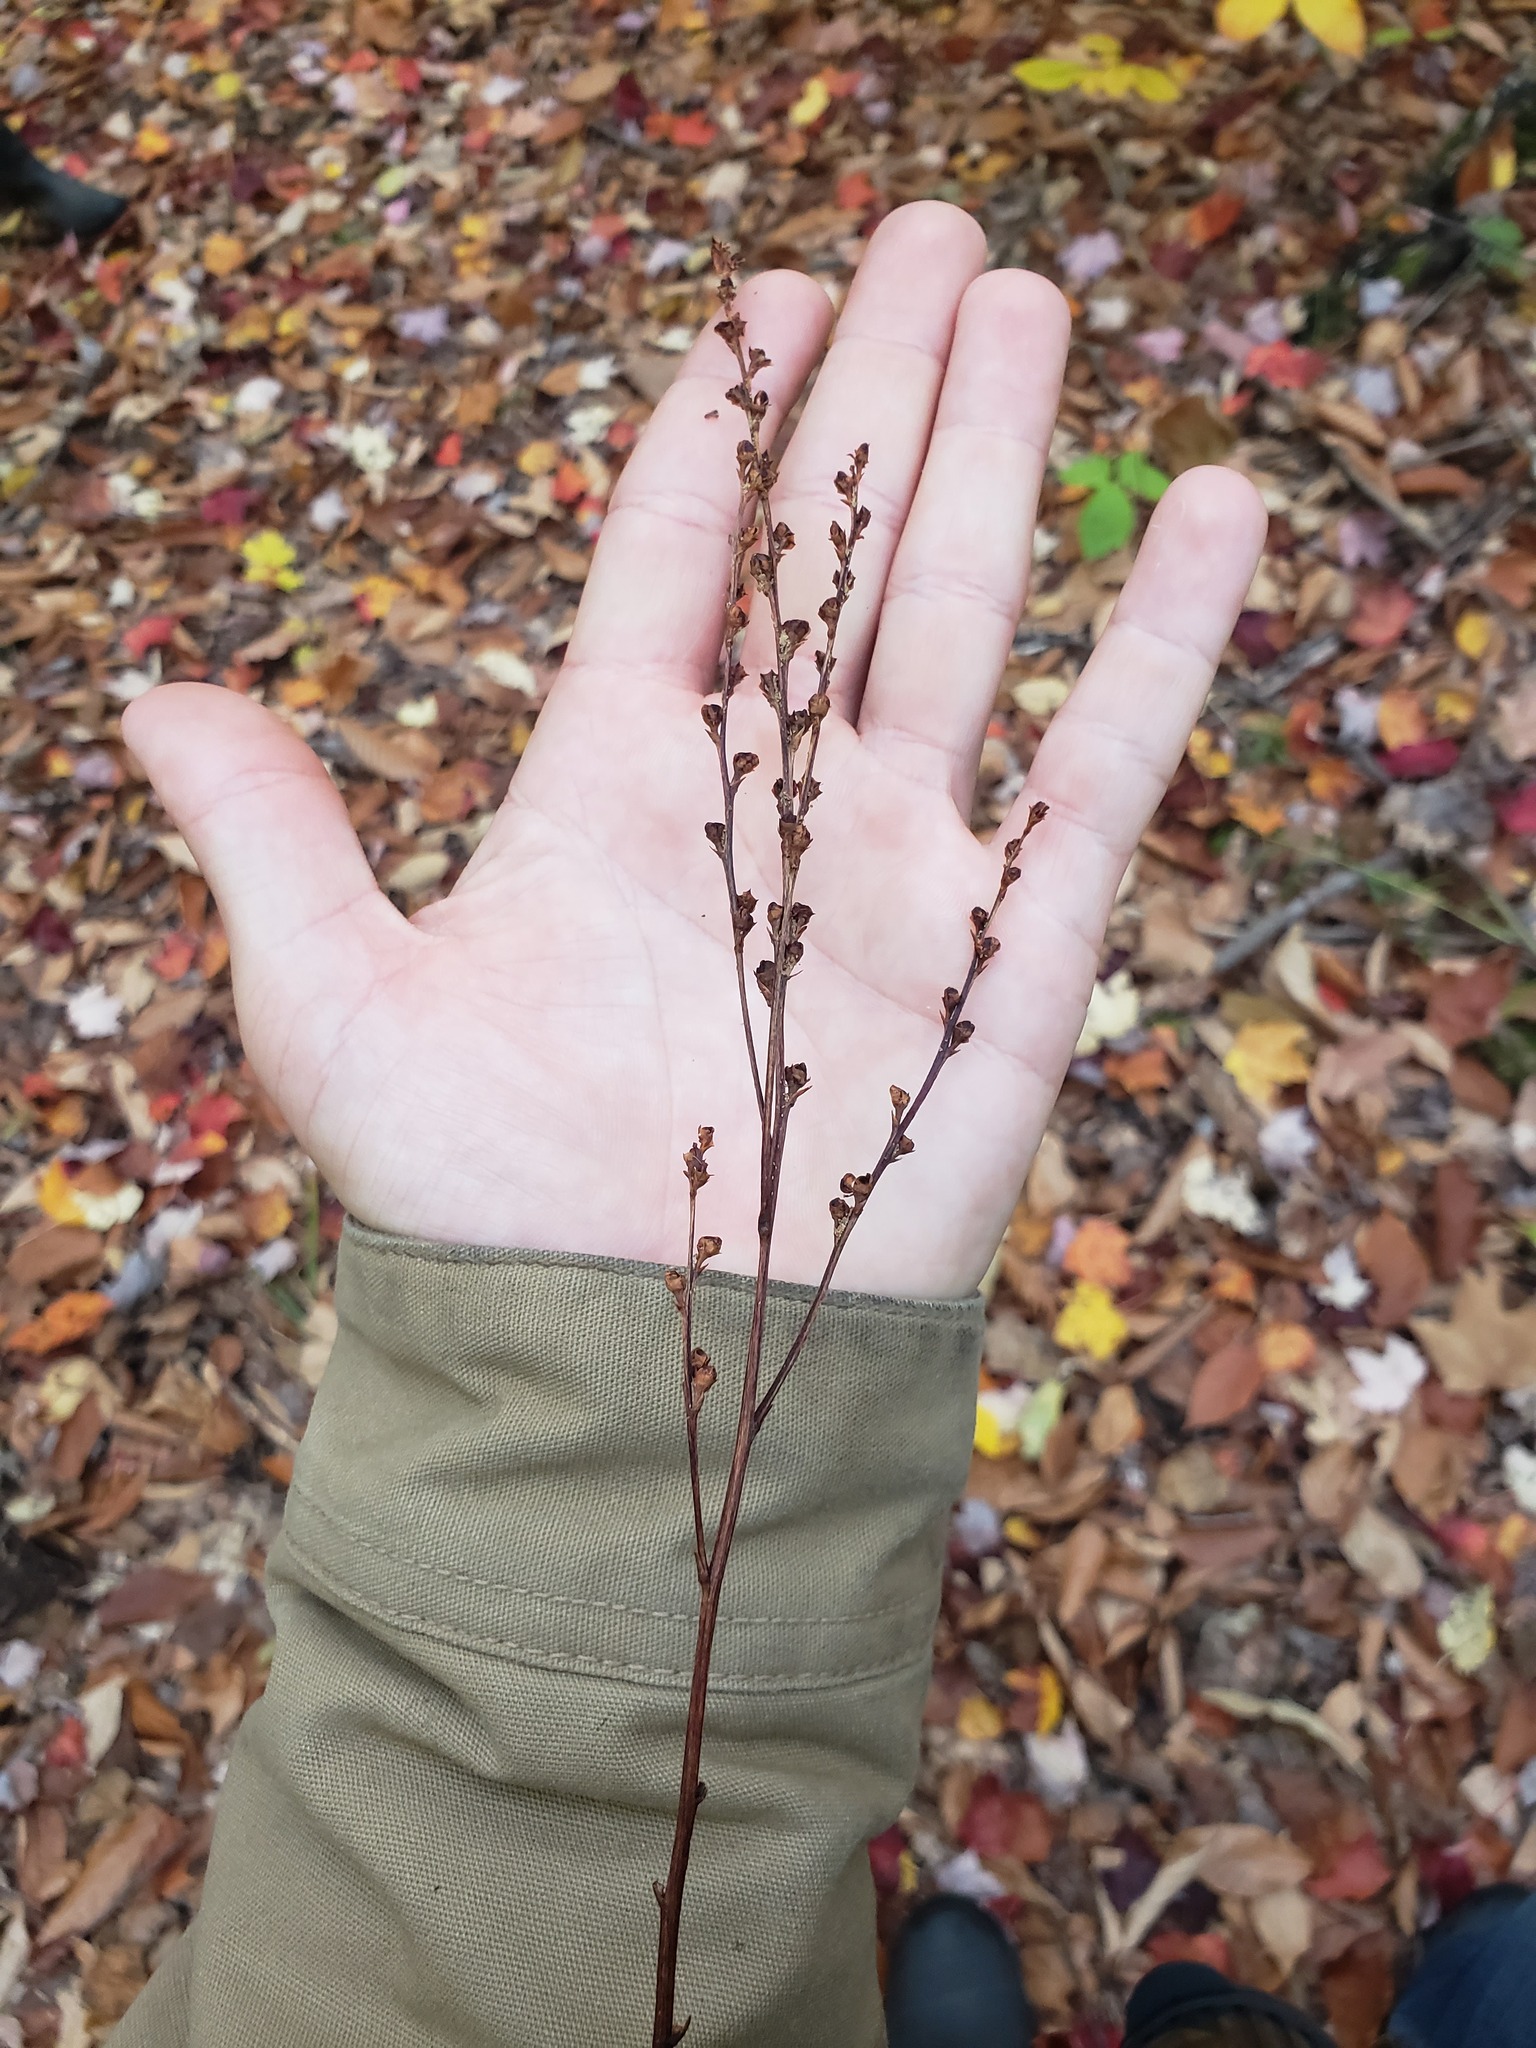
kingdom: Plantae
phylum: Tracheophyta
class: Magnoliopsida
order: Lamiales
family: Orobanchaceae
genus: Epifagus
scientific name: Epifagus virginiana
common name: Beechdrops
